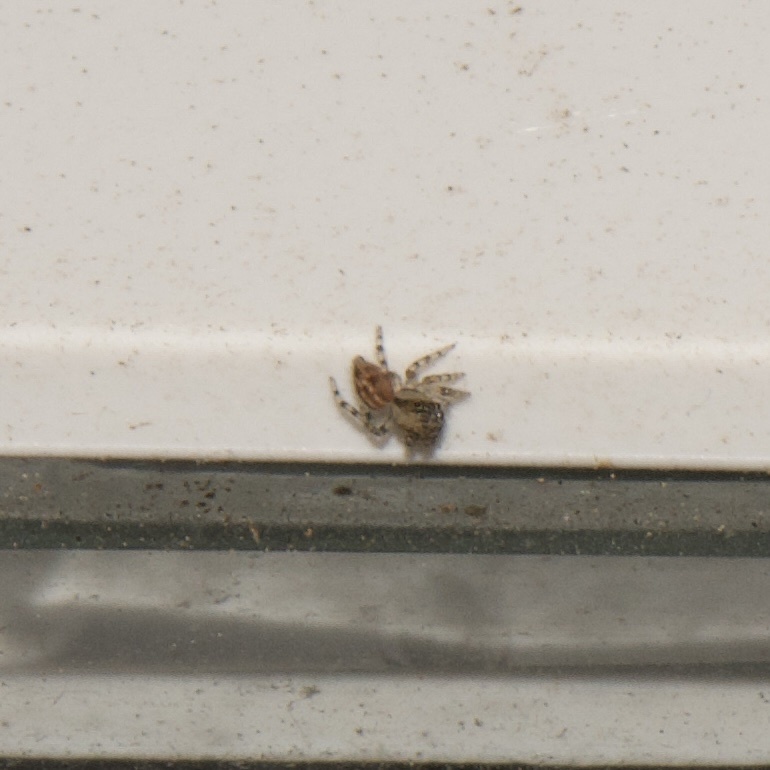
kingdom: Animalia
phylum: Arthropoda
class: Arachnida
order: Araneae
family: Salticidae
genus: Plexippus
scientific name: Plexippus paykulli
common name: Pantropical jumper
